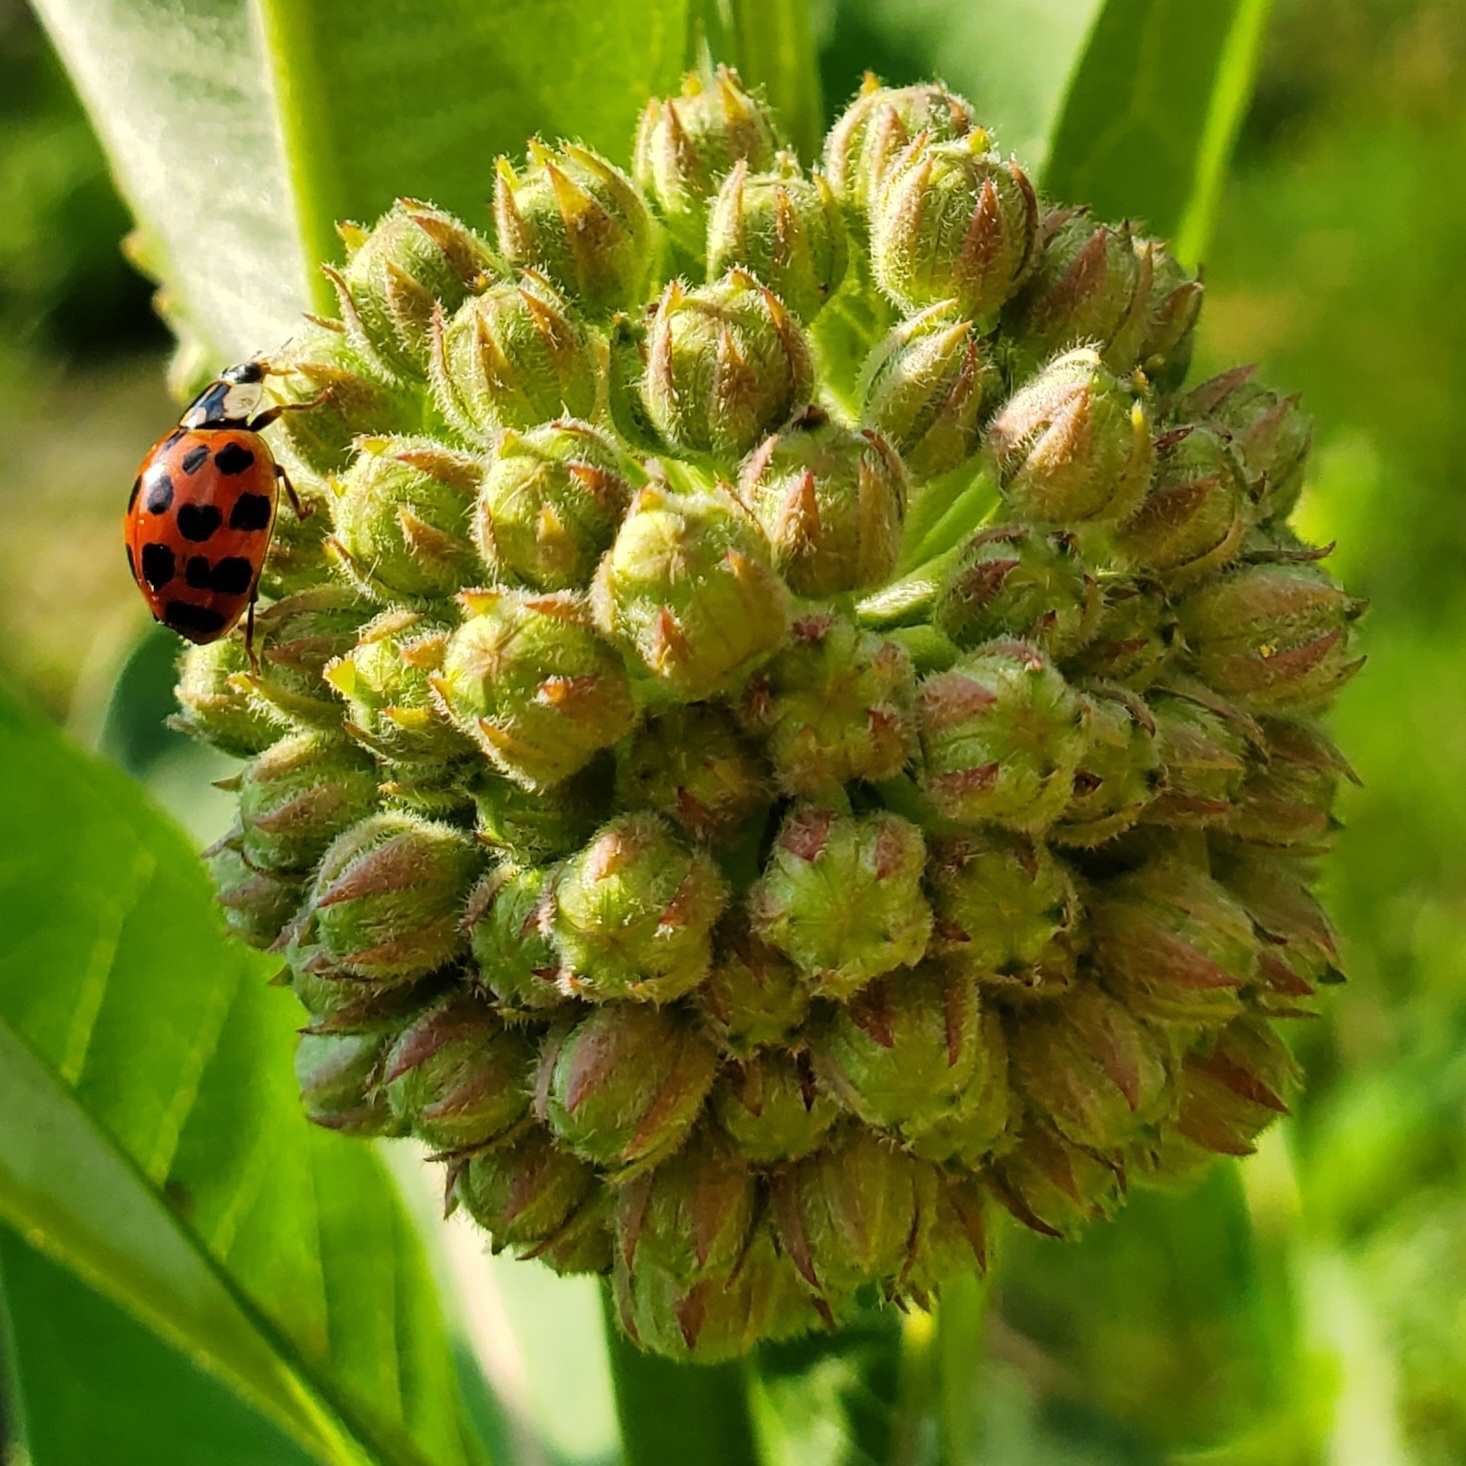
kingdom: Animalia
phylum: Arthropoda
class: Insecta
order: Coleoptera
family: Coccinellidae
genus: Harmonia
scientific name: Harmonia axyridis
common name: Harlequin ladybird
